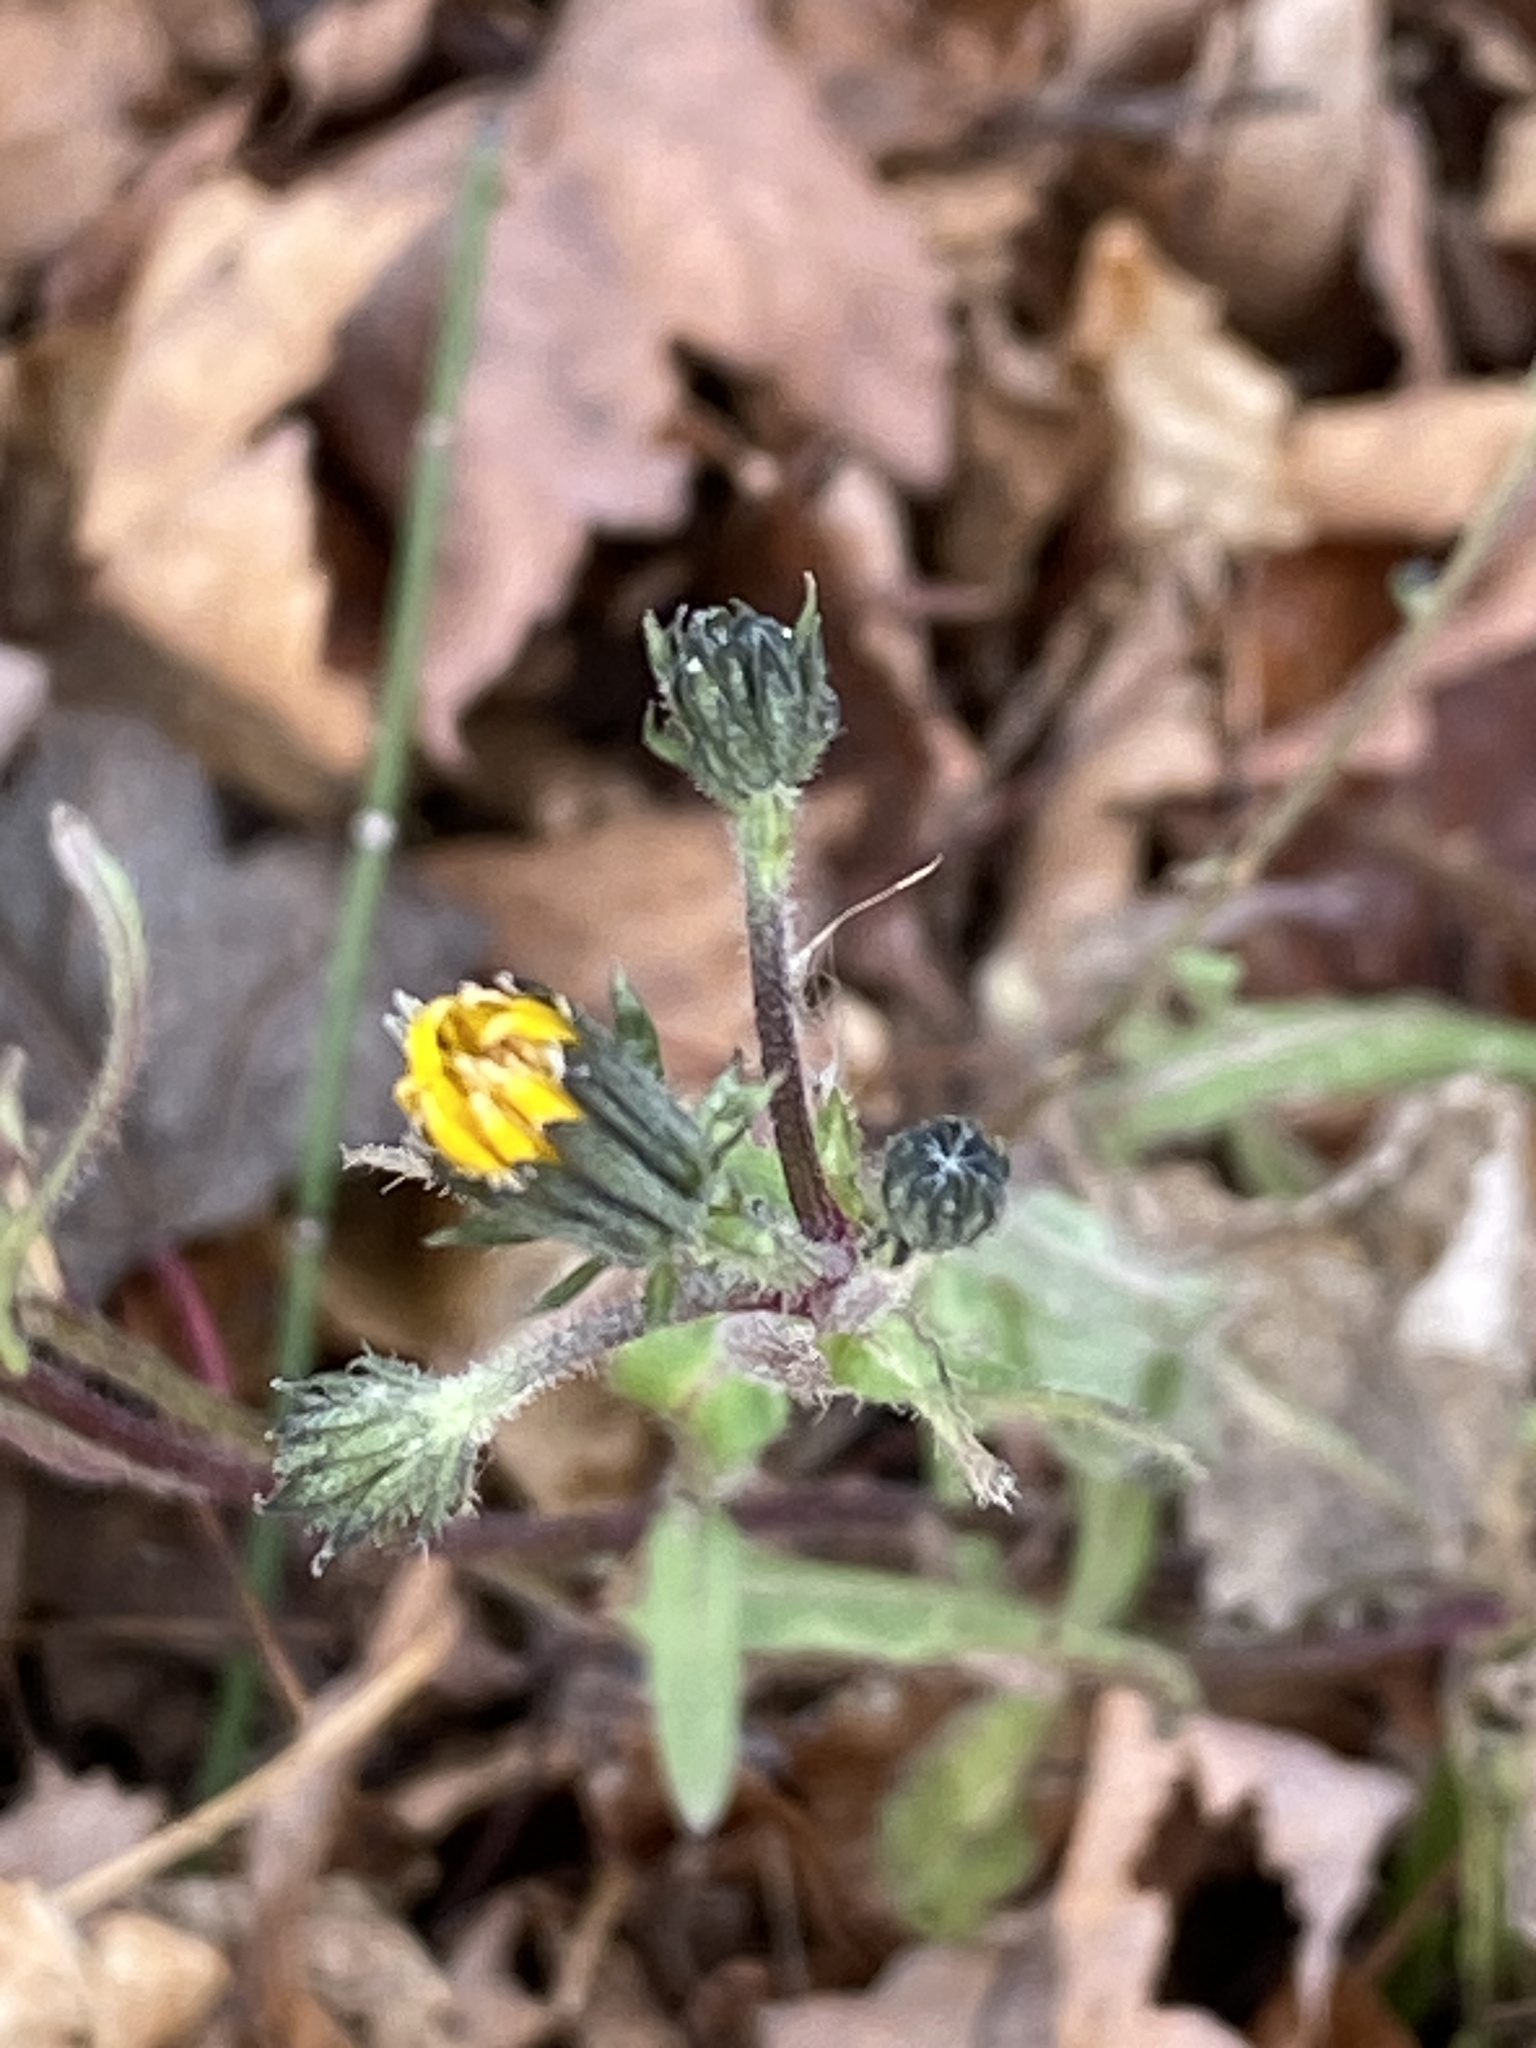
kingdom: Plantae
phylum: Tracheophyta
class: Magnoliopsida
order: Asterales
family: Asteraceae
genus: Picris
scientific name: Picris hieracioides
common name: Hawkweed oxtongue
